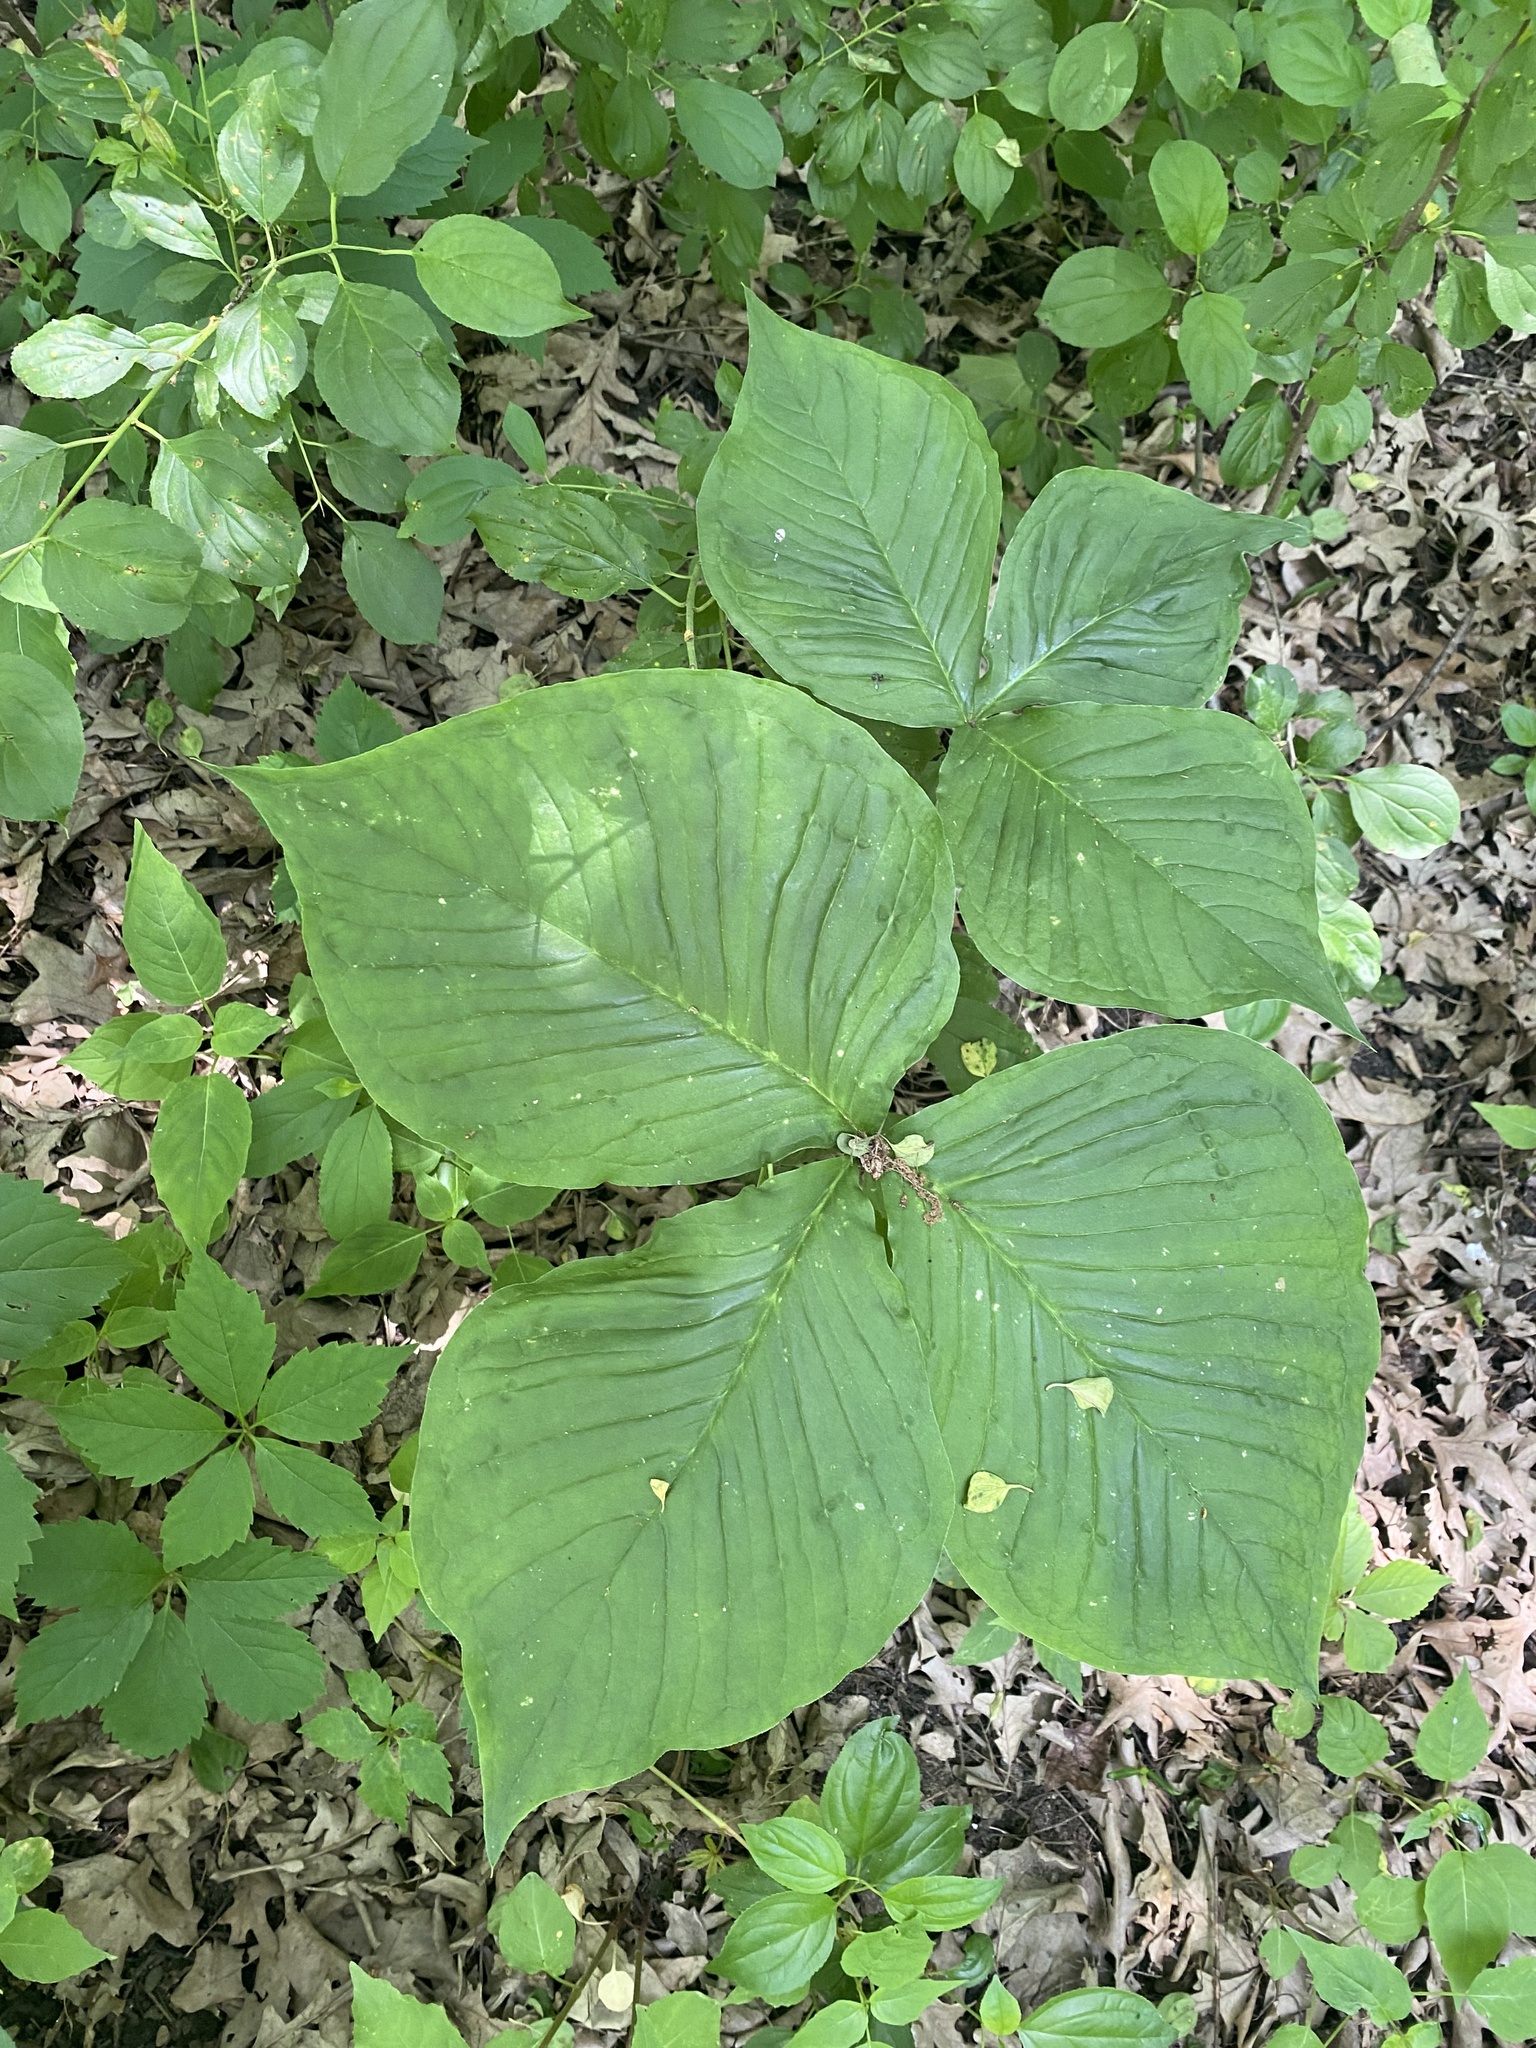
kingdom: Plantae
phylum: Tracheophyta
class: Liliopsida
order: Alismatales
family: Araceae
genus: Arisaema
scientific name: Arisaema triphyllum
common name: Jack-in-the-pulpit
